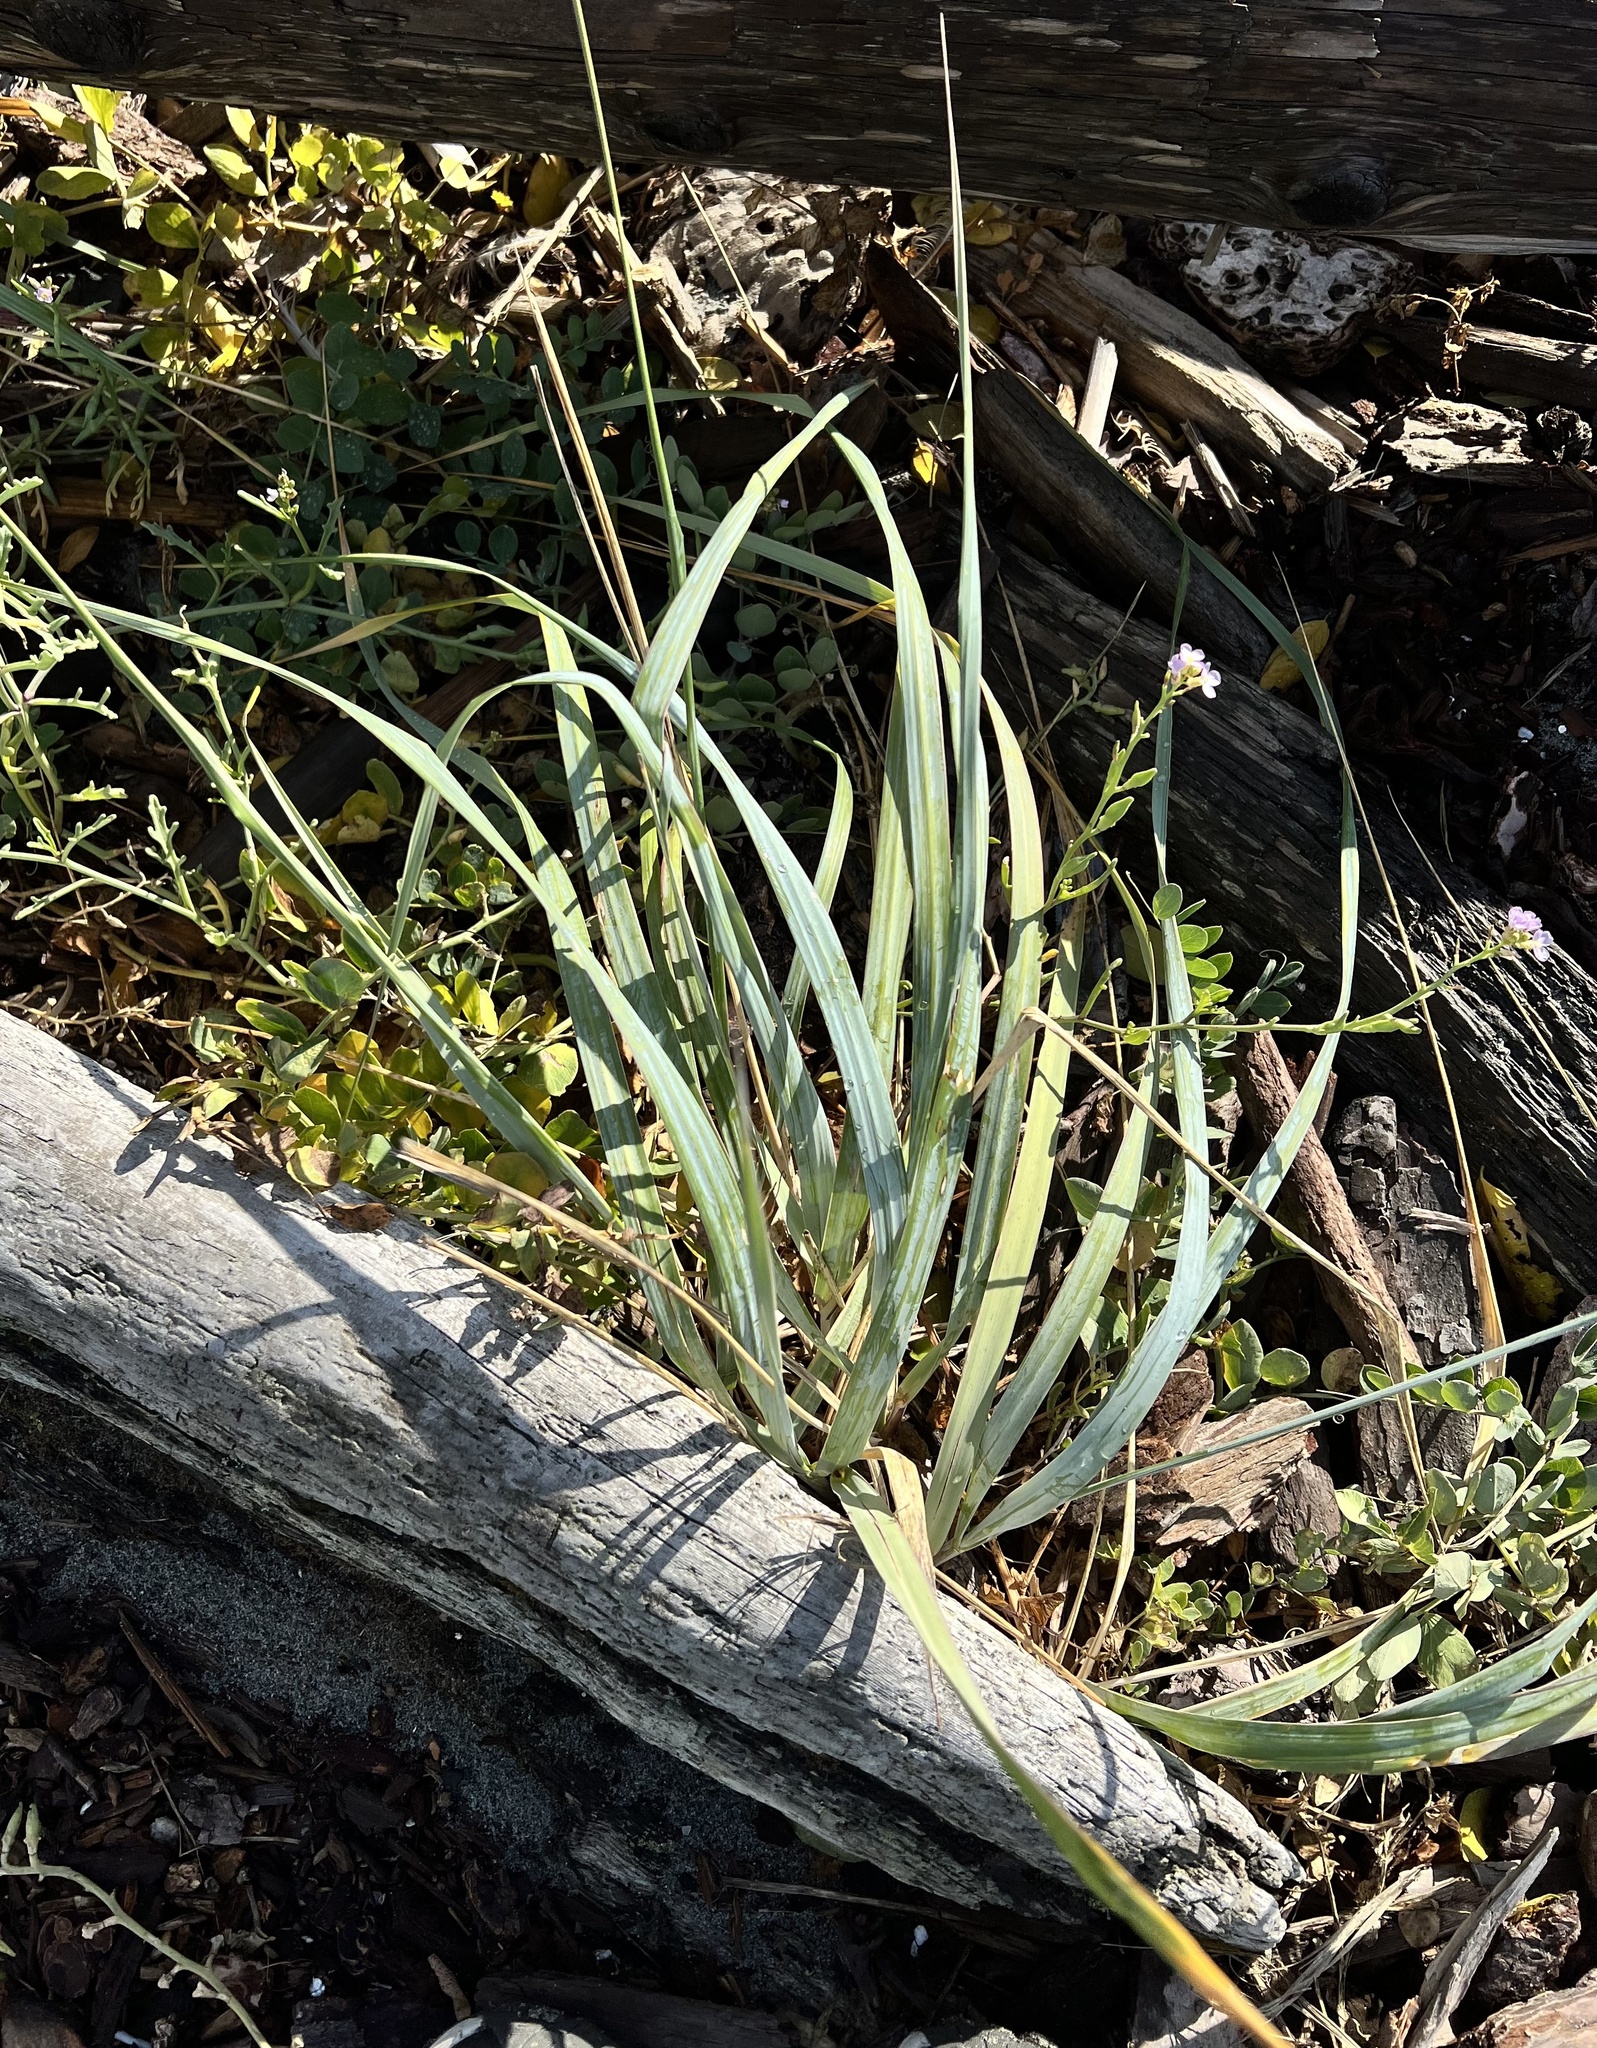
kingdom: Plantae
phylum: Tracheophyta
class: Liliopsida
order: Poales
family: Poaceae
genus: Leymus
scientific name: Leymus mollis
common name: American dune grass
